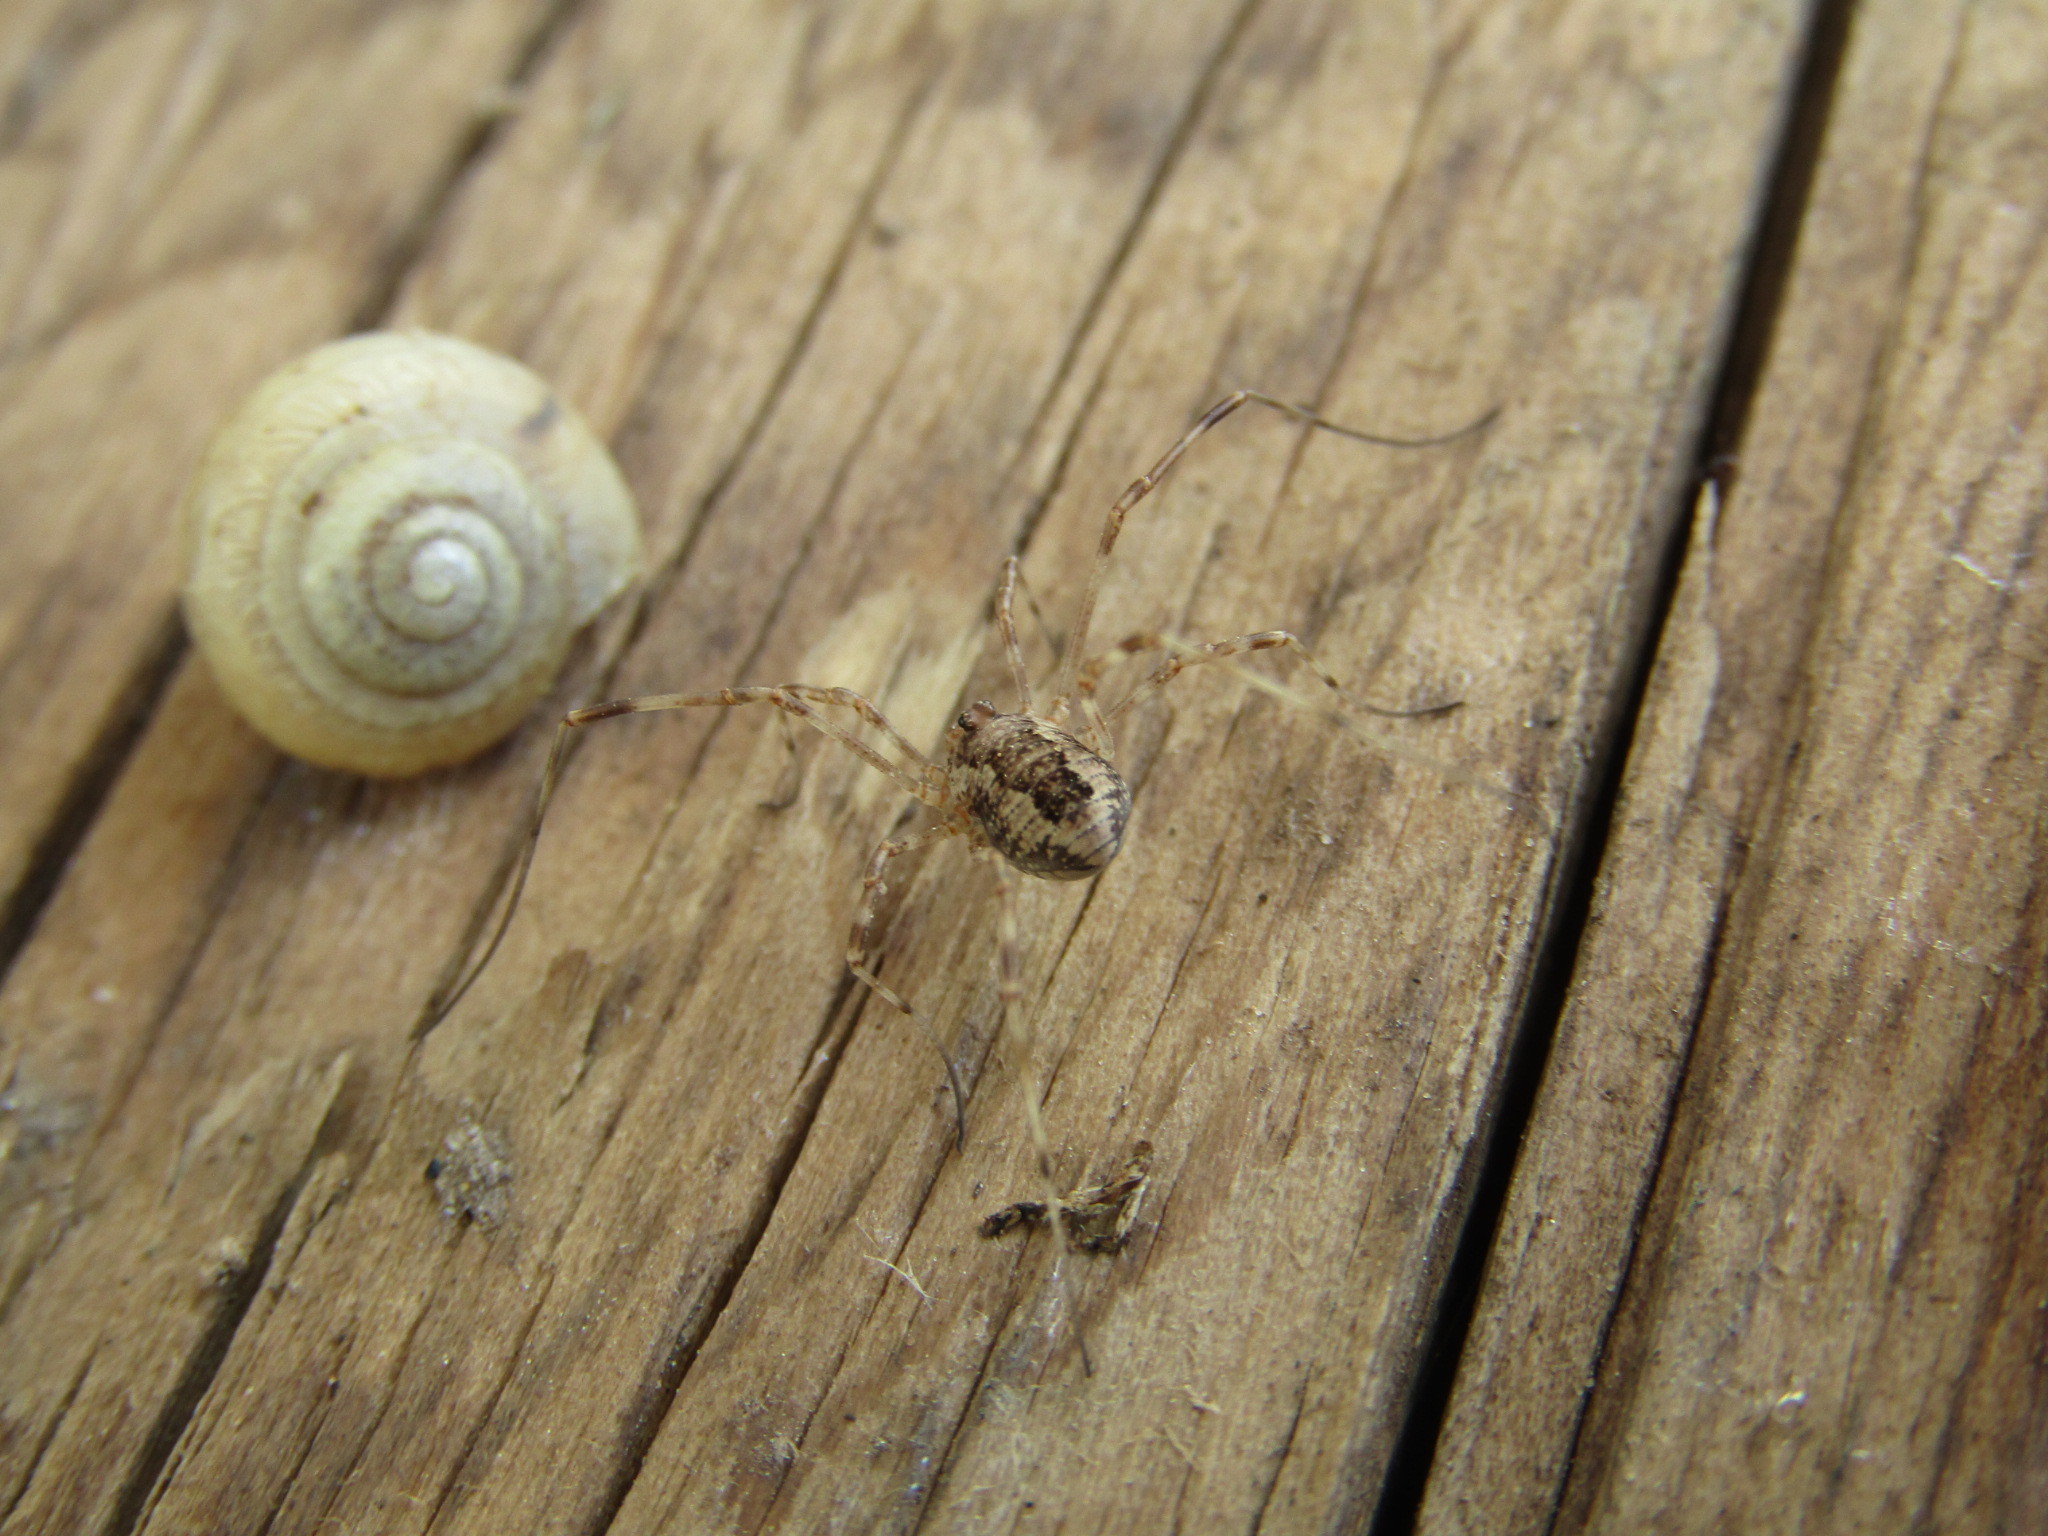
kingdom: Animalia
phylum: Arthropoda
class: Arachnida
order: Opiliones
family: Phalangiidae
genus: Rilaena
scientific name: Rilaena triangularis
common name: Spring harvestman
